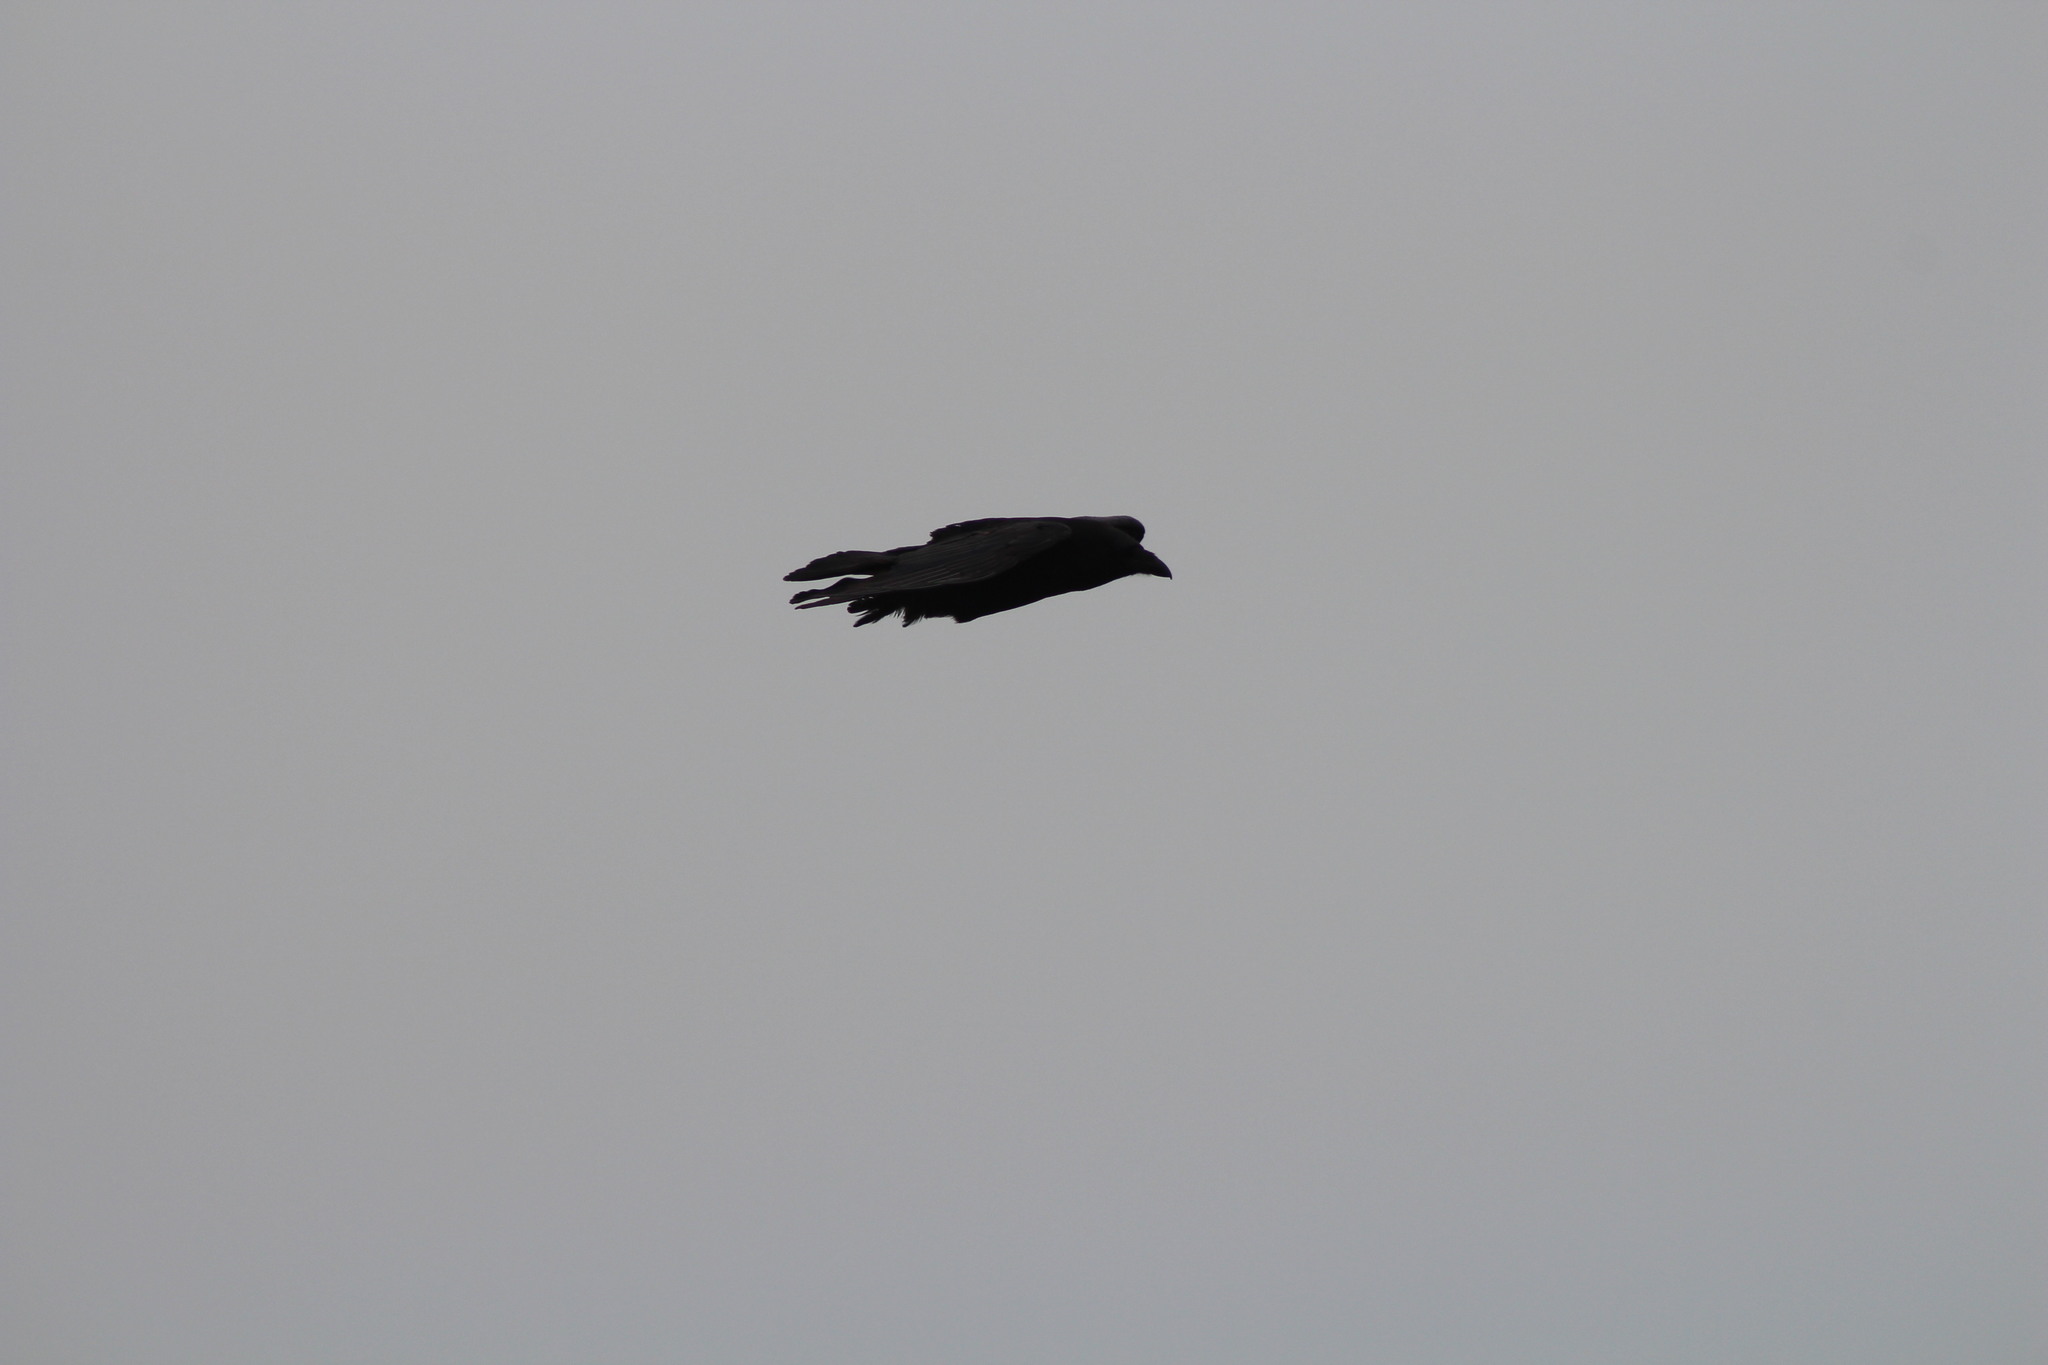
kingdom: Animalia
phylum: Chordata
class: Aves
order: Passeriformes
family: Corvidae
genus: Corvus
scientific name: Corvus corax
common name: Common raven
